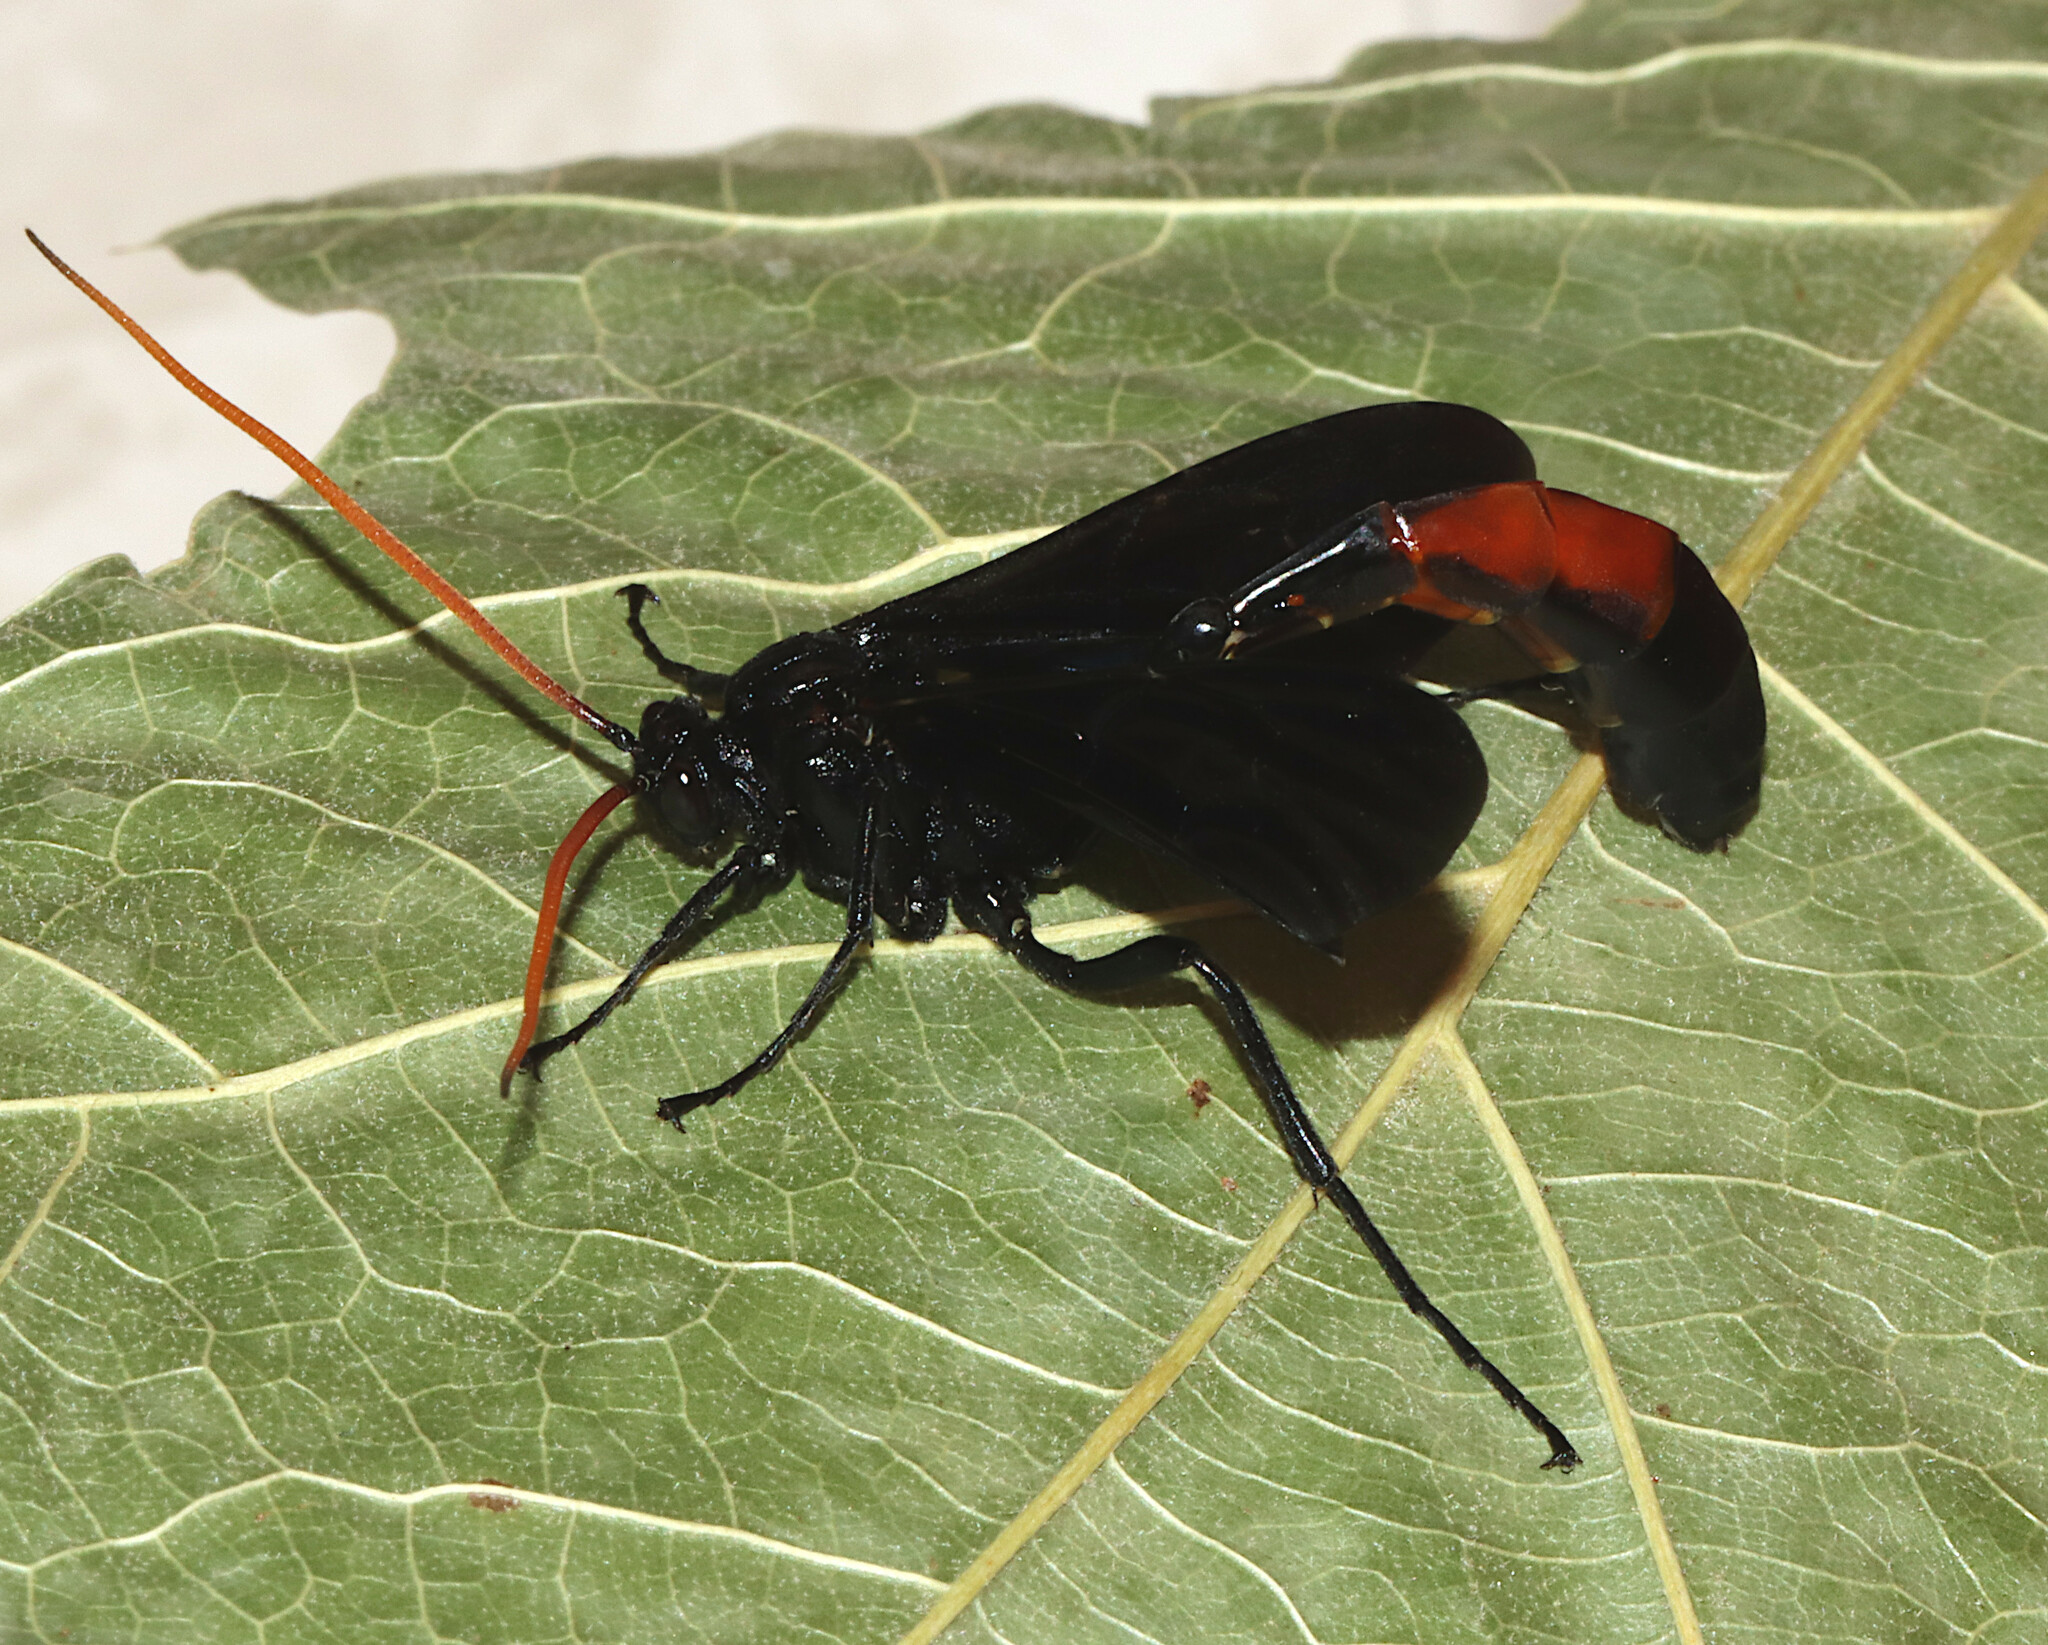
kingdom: Animalia
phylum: Arthropoda
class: Insecta
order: Hymenoptera
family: Ichneumonidae
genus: Thyreodon
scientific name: Thyreodon fernaldi
